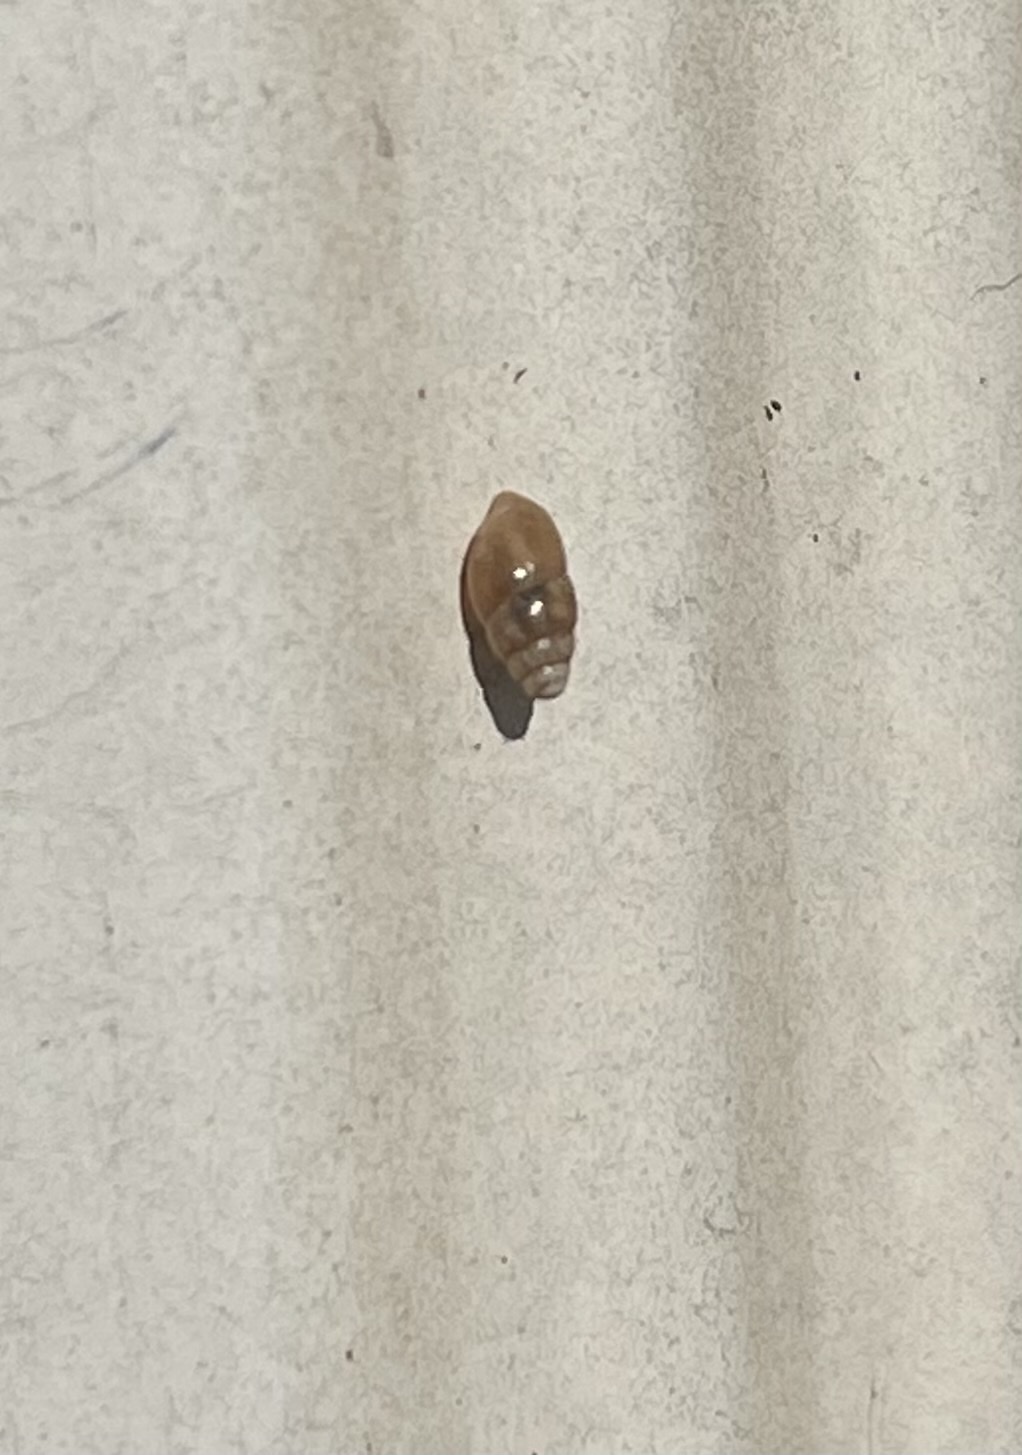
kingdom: Animalia
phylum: Mollusca
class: Gastropoda
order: Stylommatophora
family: Cochlicopidae
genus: Cochlicopa
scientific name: Cochlicopa lubrica
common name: Glossy pillar snail
